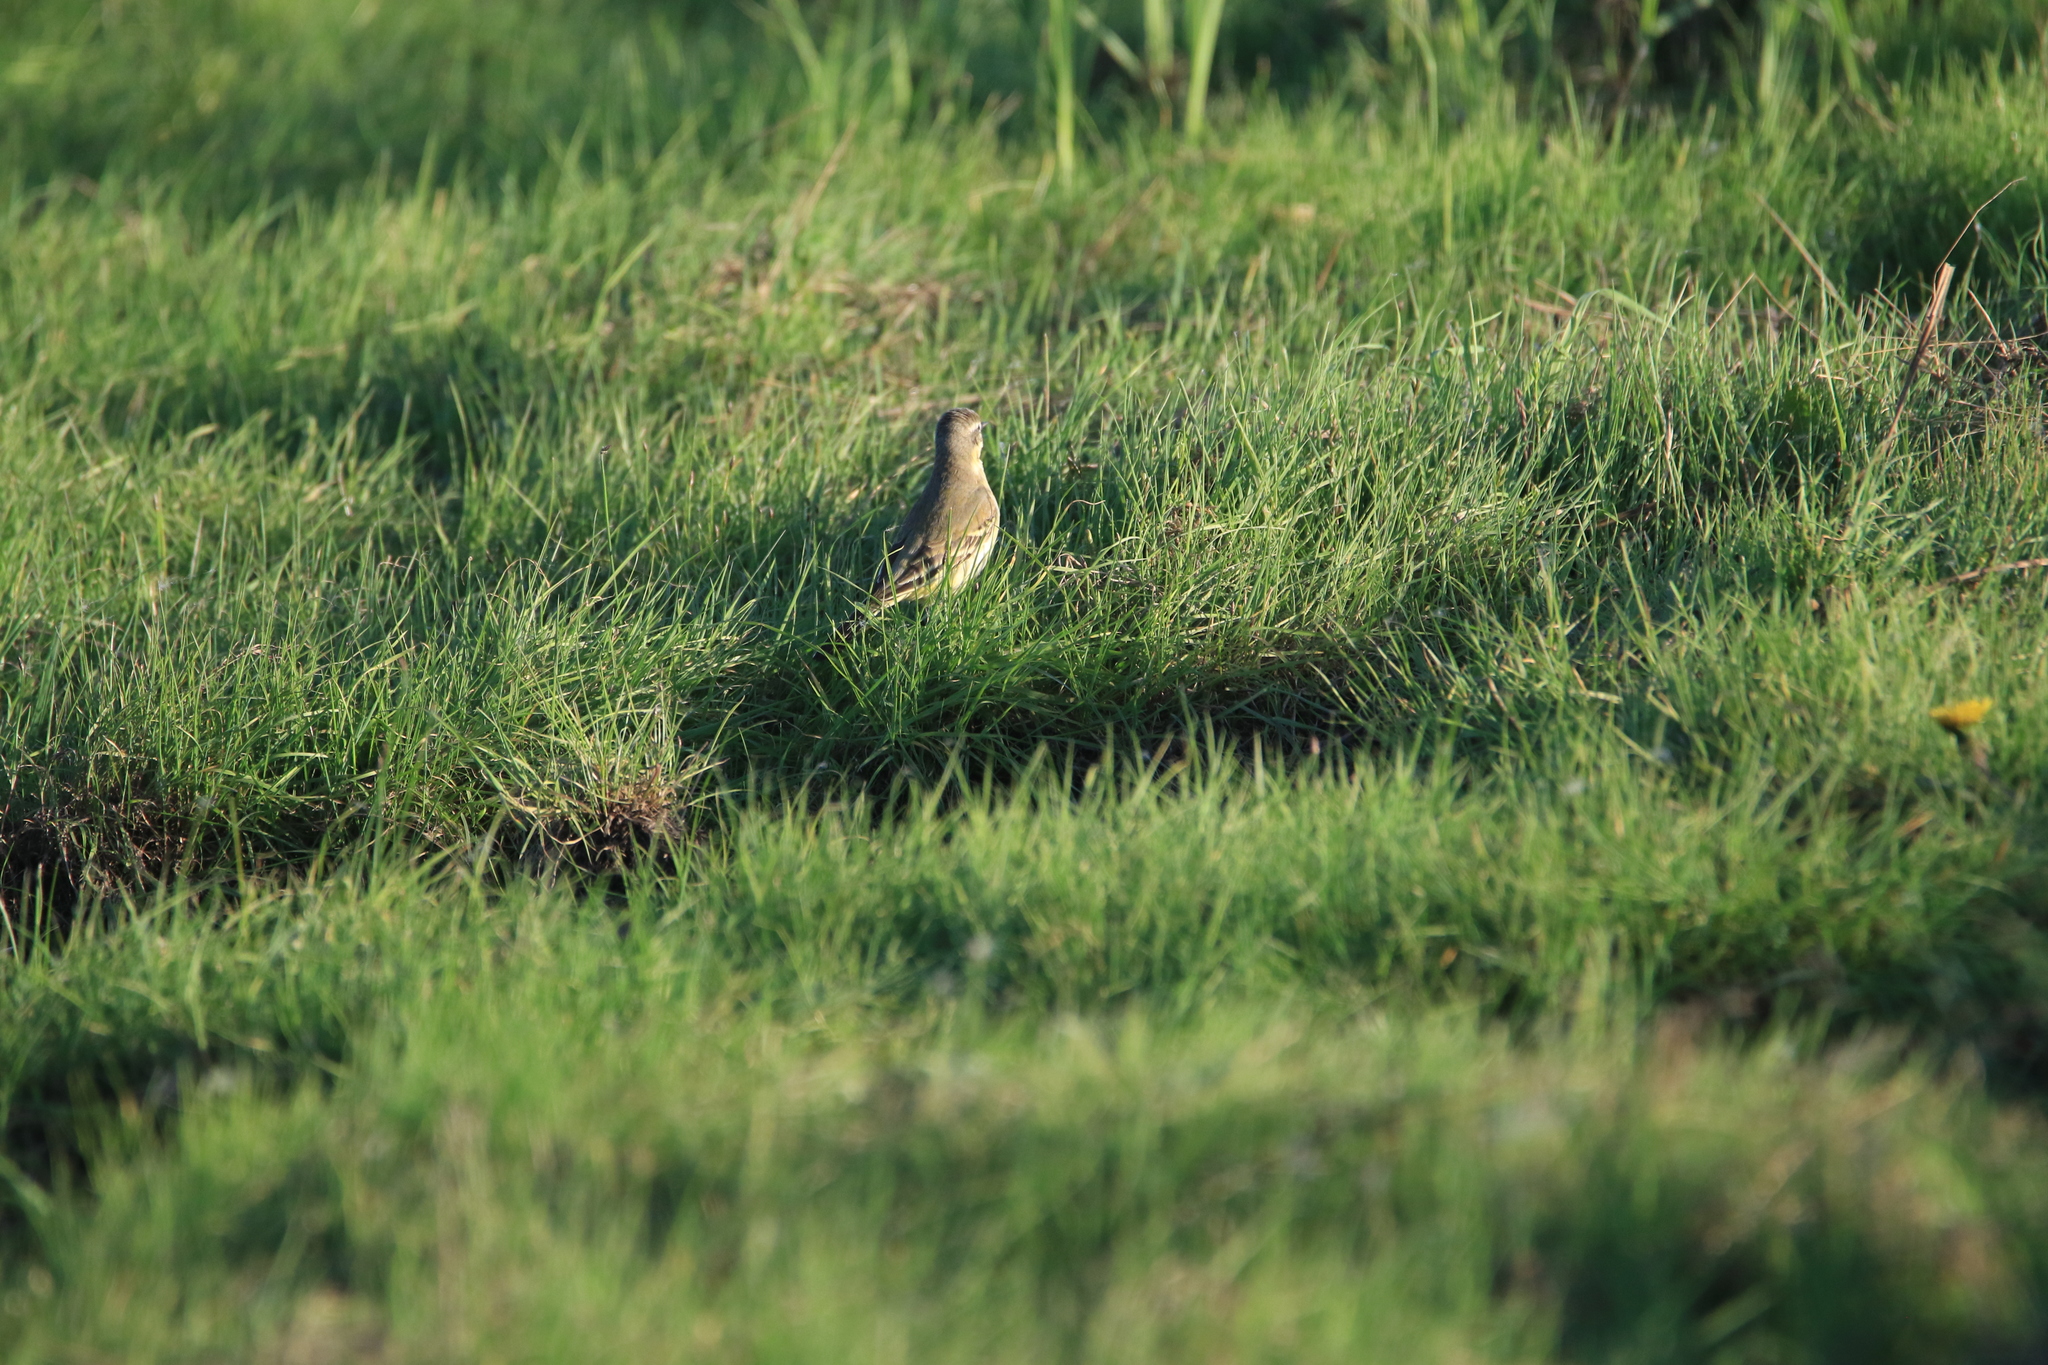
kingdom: Animalia
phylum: Chordata
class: Aves
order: Passeriformes
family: Motacillidae
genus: Motacilla
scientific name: Motacilla flava
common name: Western yellow wagtail
